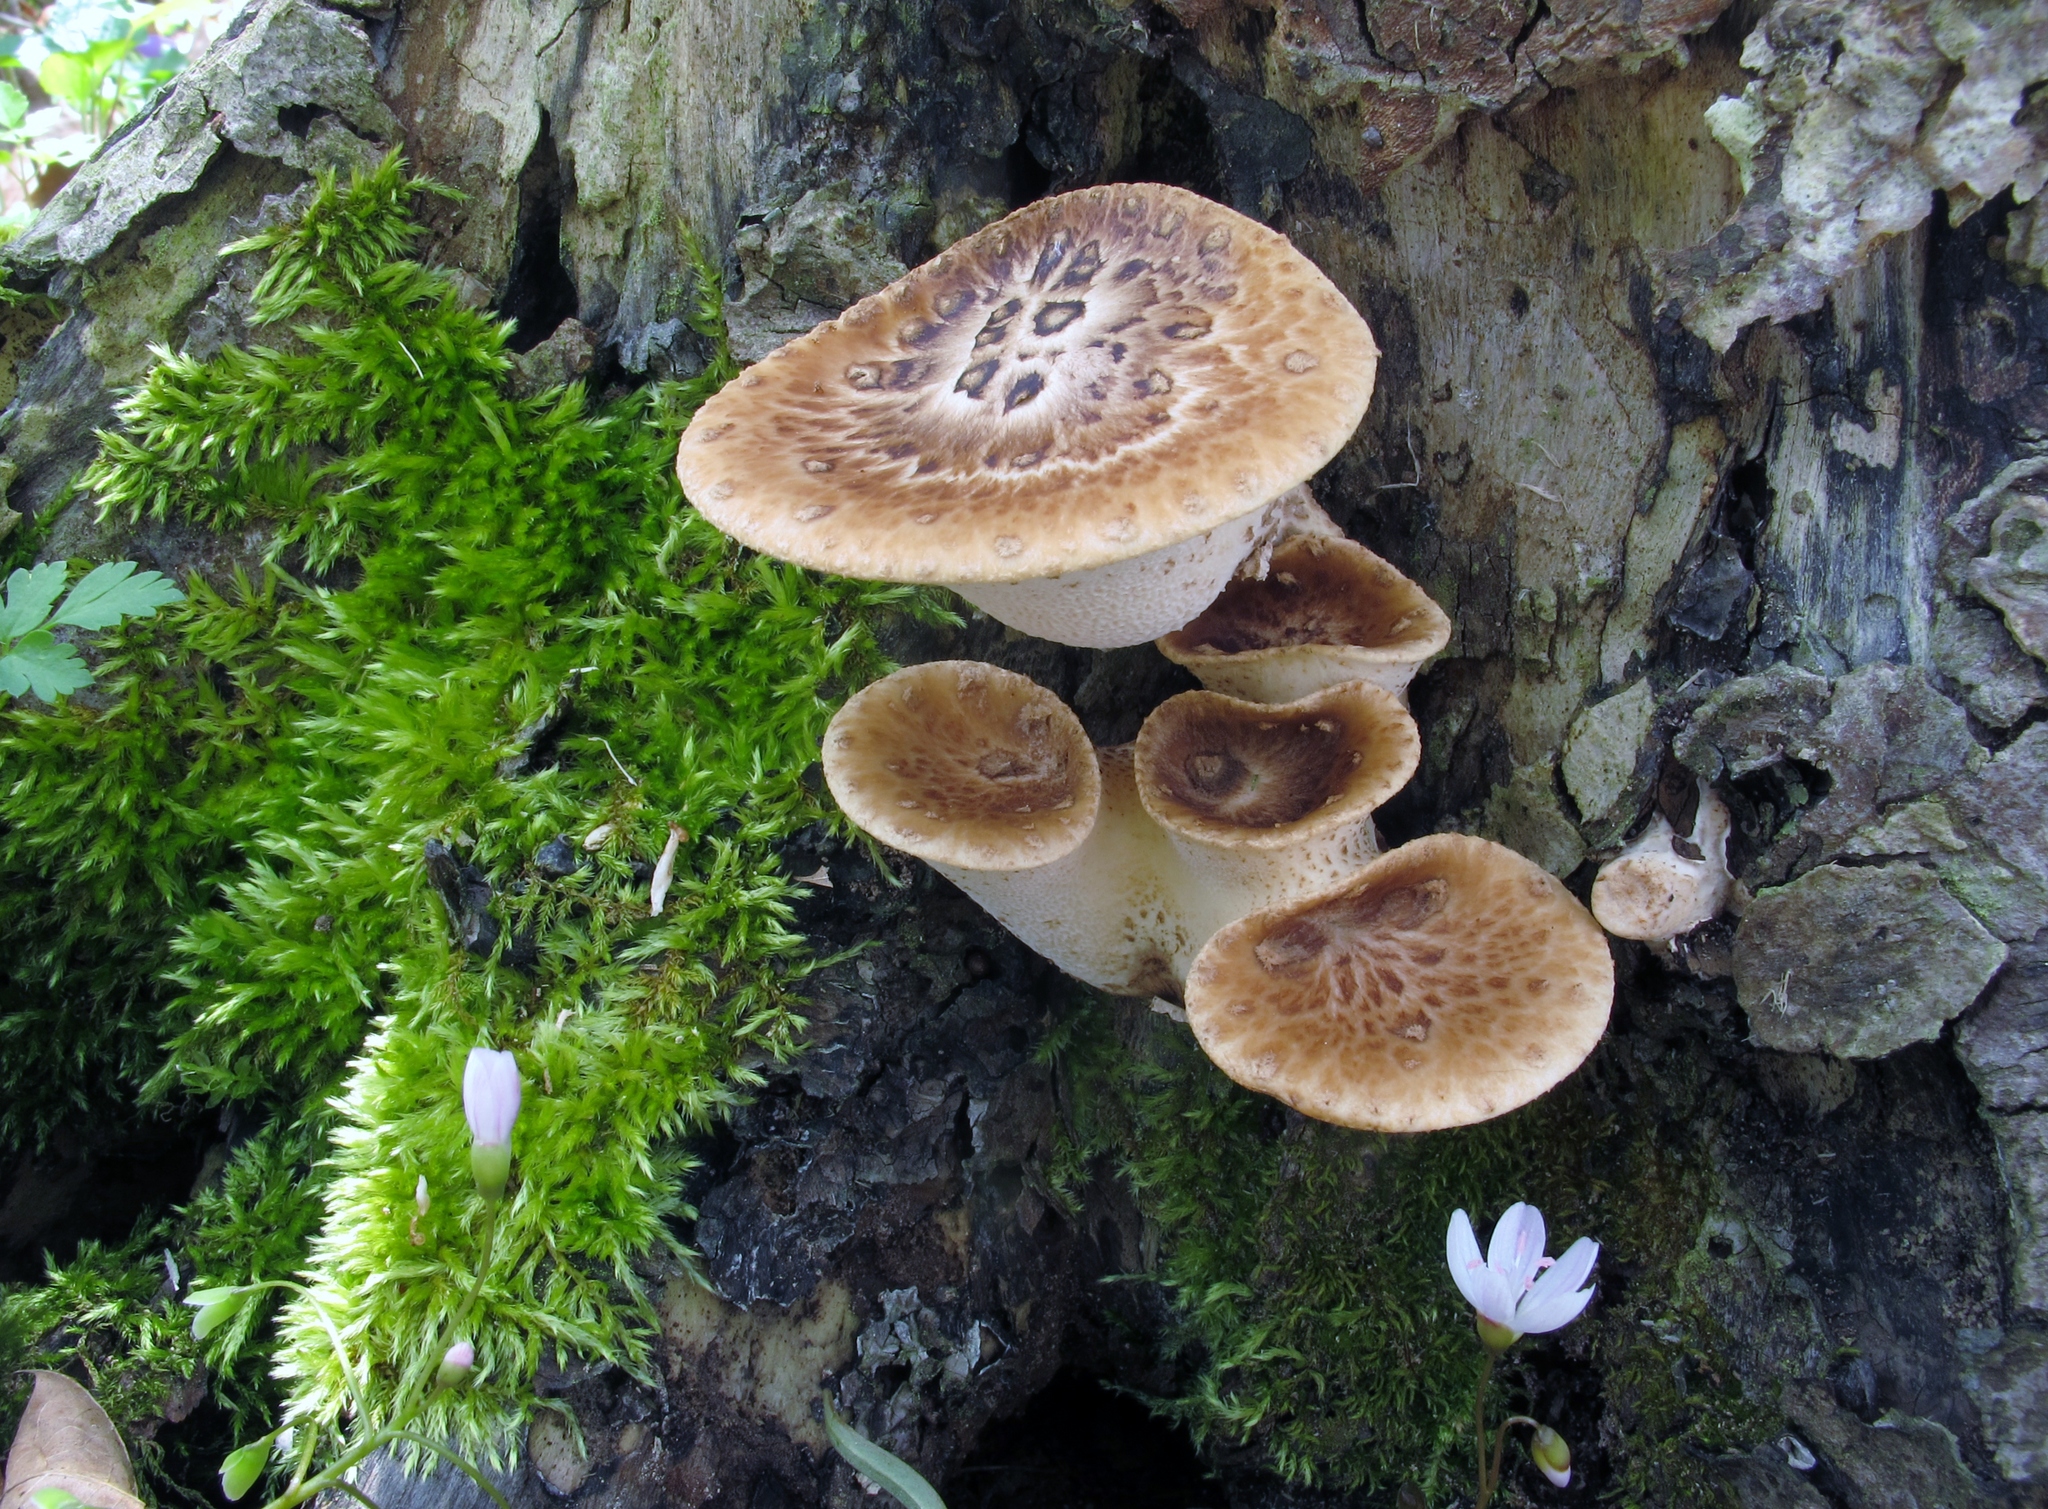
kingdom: Fungi
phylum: Basidiomycota
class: Agaricomycetes
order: Polyporales
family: Polyporaceae
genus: Cerioporus
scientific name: Cerioporus squamosus
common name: Dryad's saddle
